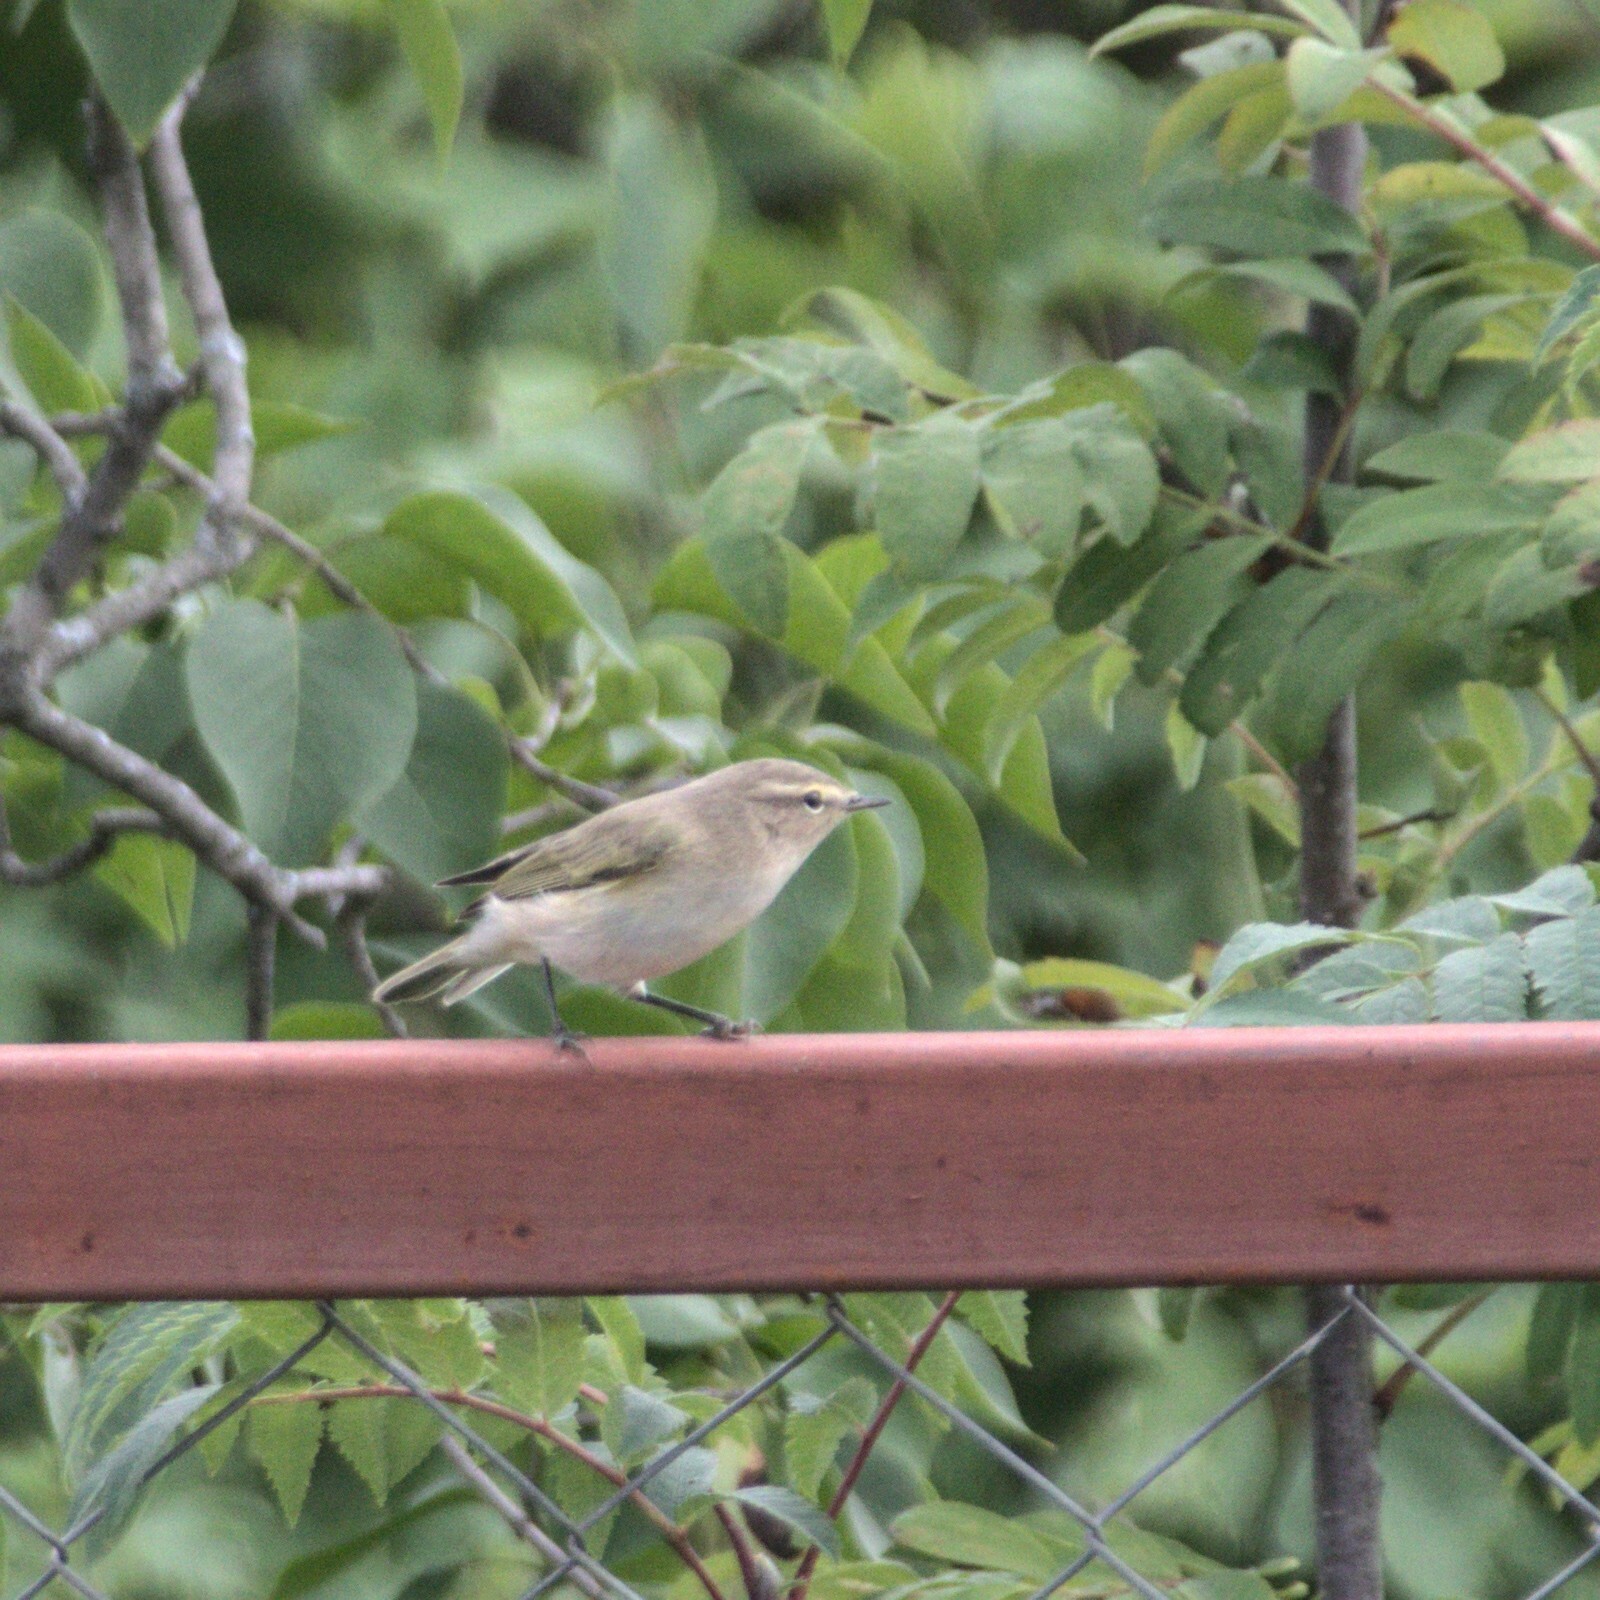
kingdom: Animalia
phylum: Chordata
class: Aves
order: Passeriformes
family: Phylloscopidae
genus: Phylloscopus
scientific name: Phylloscopus collybita
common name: Common chiffchaff
